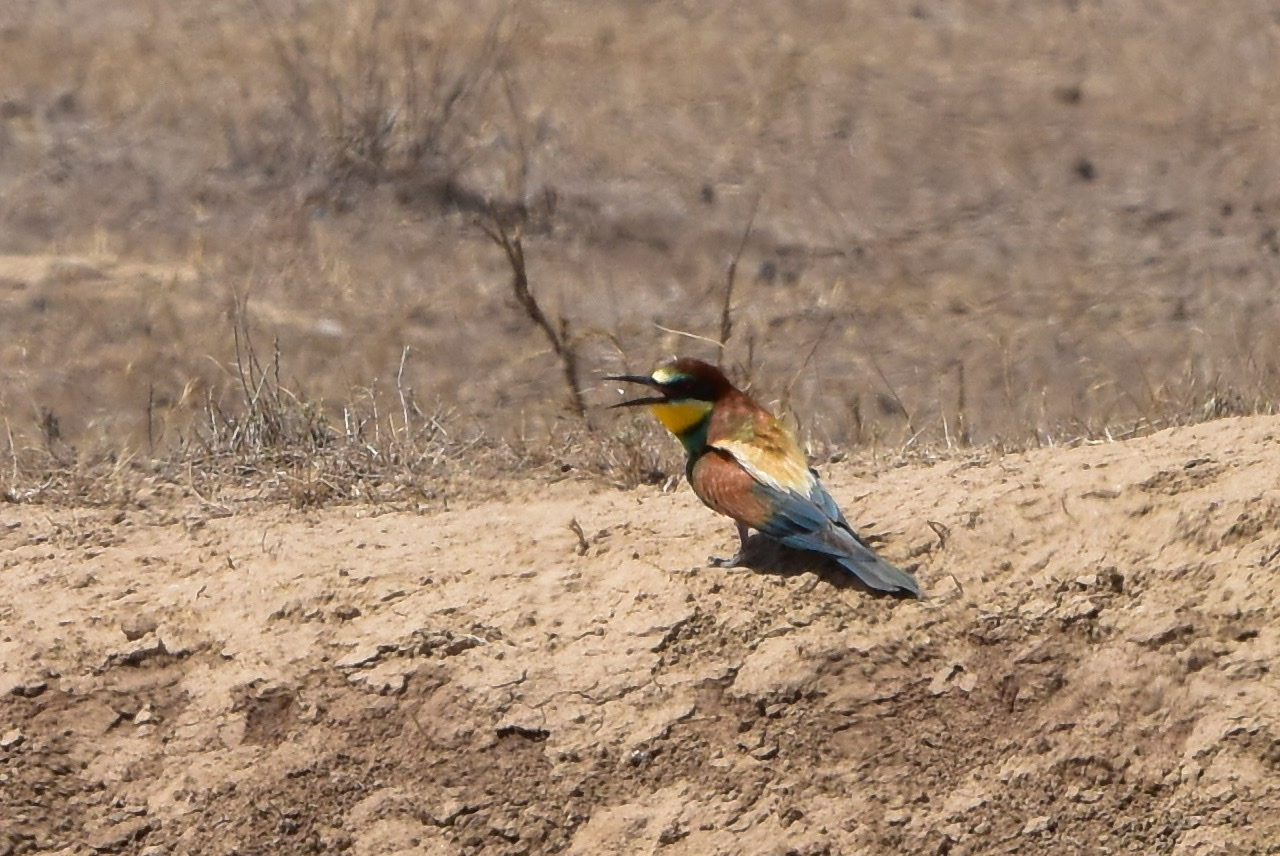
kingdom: Animalia
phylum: Chordata
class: Aves
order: Coraciiformes
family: Meropidae
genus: Merops
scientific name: Merops apiaster
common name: European bee-eater
